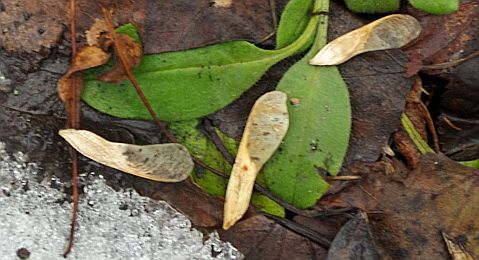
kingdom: Plantae
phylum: Tracheophyta
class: Magnoliopsida
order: Sapindales
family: Sapindaceae
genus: Acer
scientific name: Acer negundo
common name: Ashleaf maple
